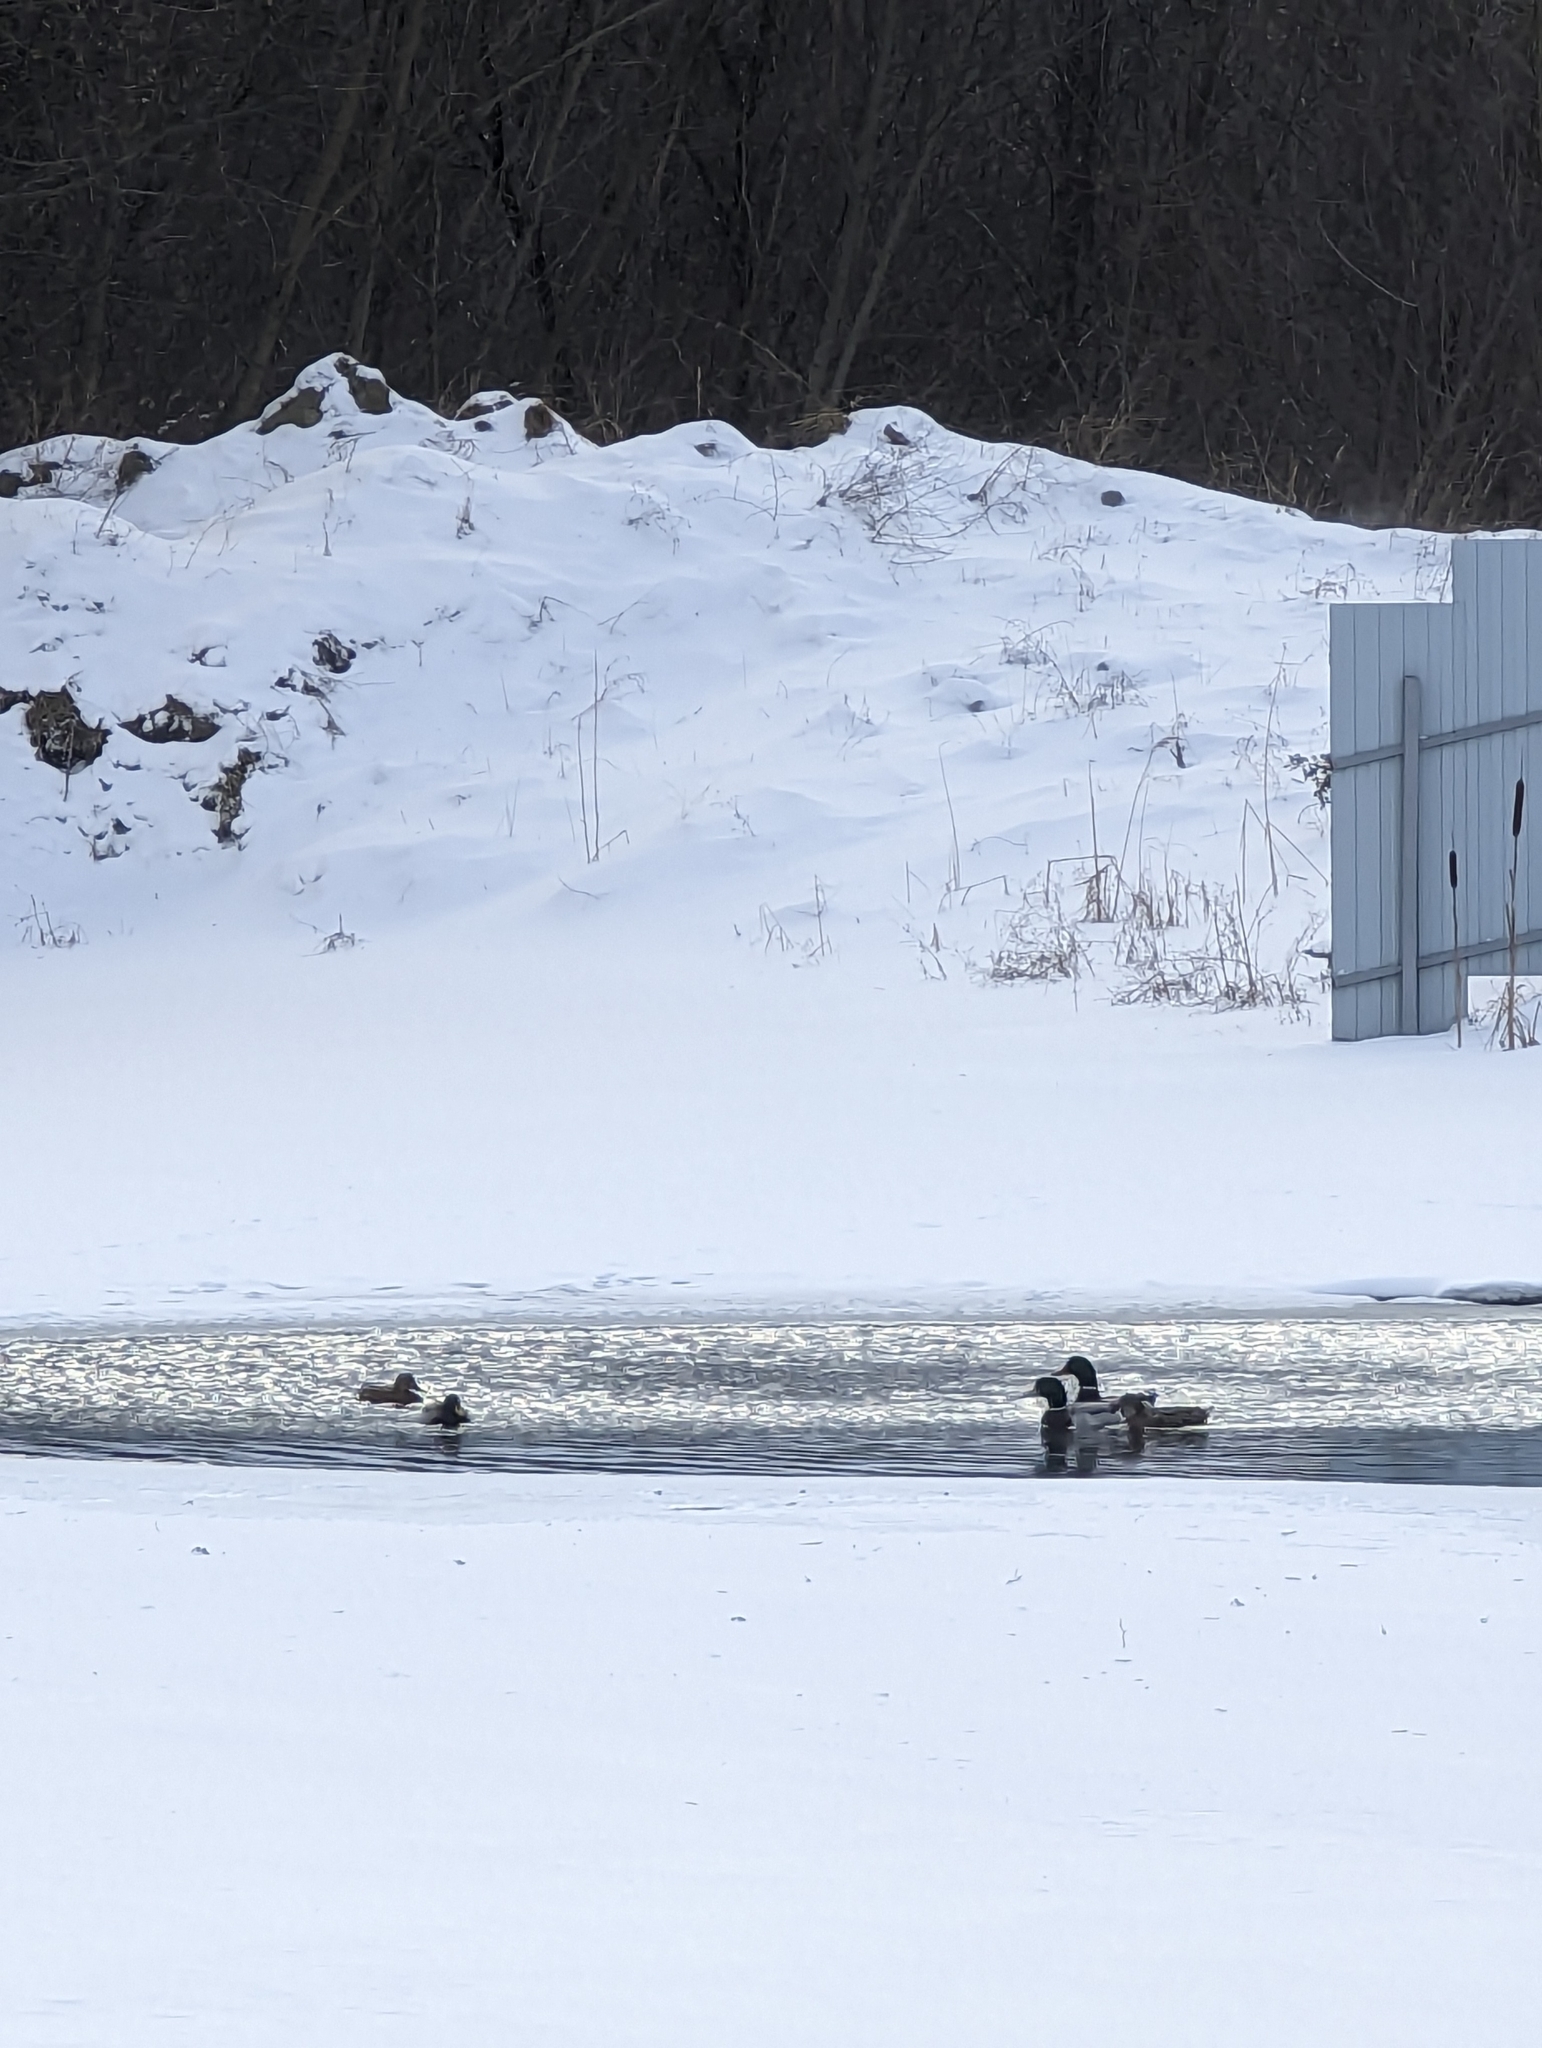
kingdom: Animalia
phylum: Chordata
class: Aves
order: Anseriformes
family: Anatidae
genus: Anas
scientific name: Anas platyrhynchos
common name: Mallard
